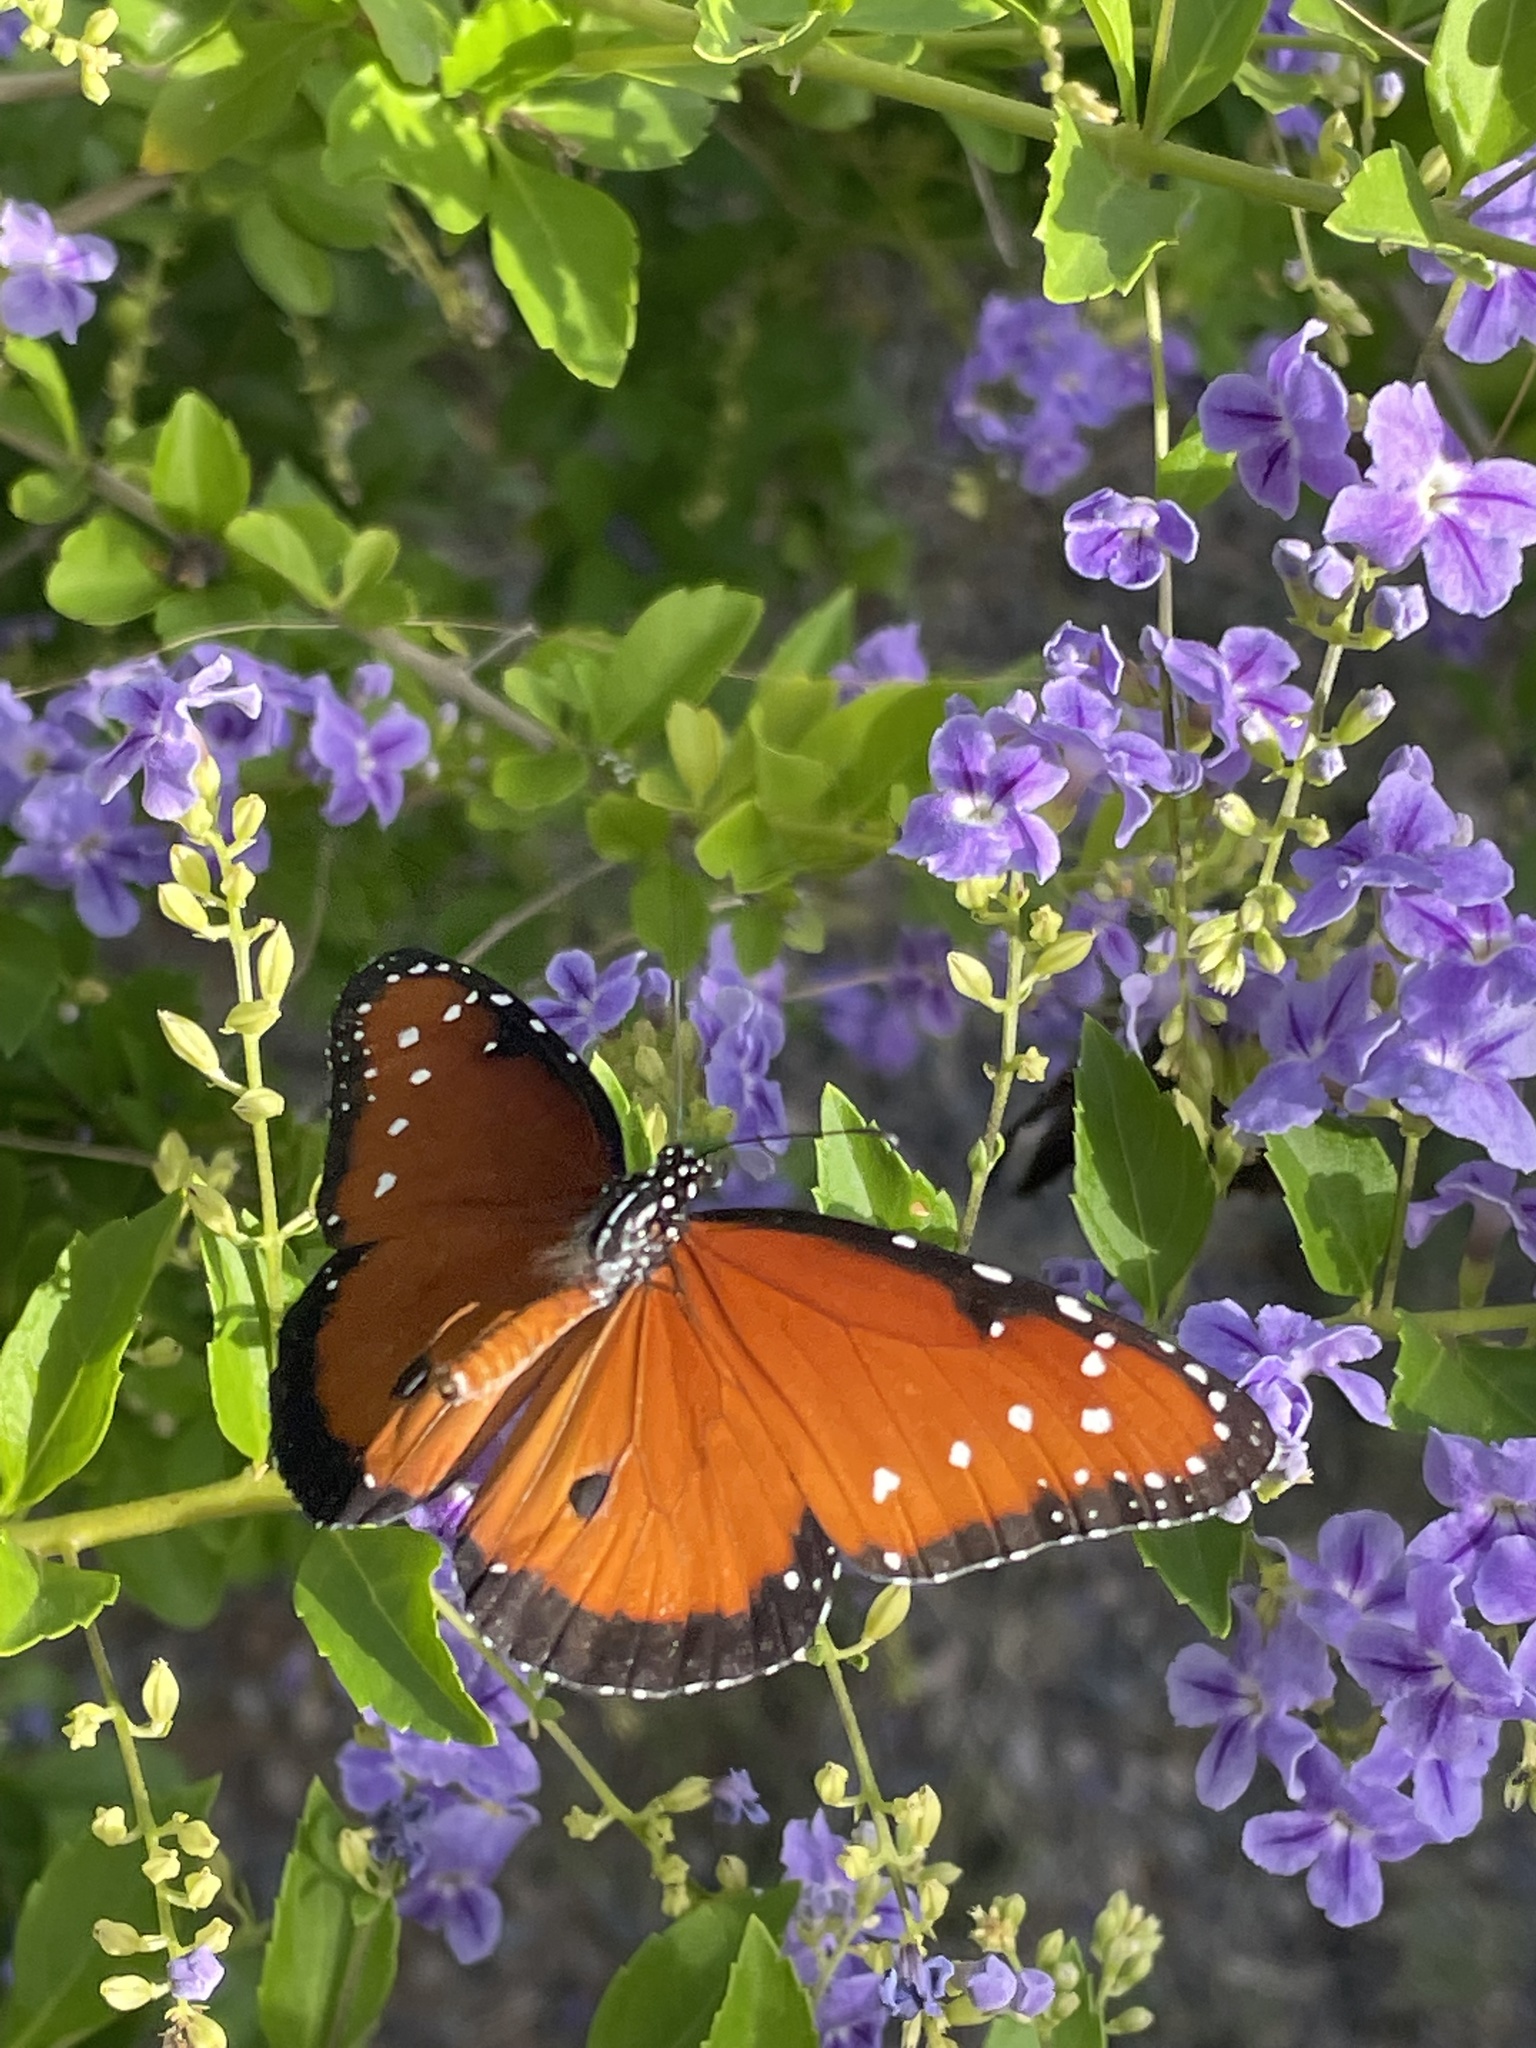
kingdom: Animalia
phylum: Arthropoda
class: Insecta
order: Lepidoptera
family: Nymphalidae
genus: Danaus
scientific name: Danaus gilippus
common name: Queen
